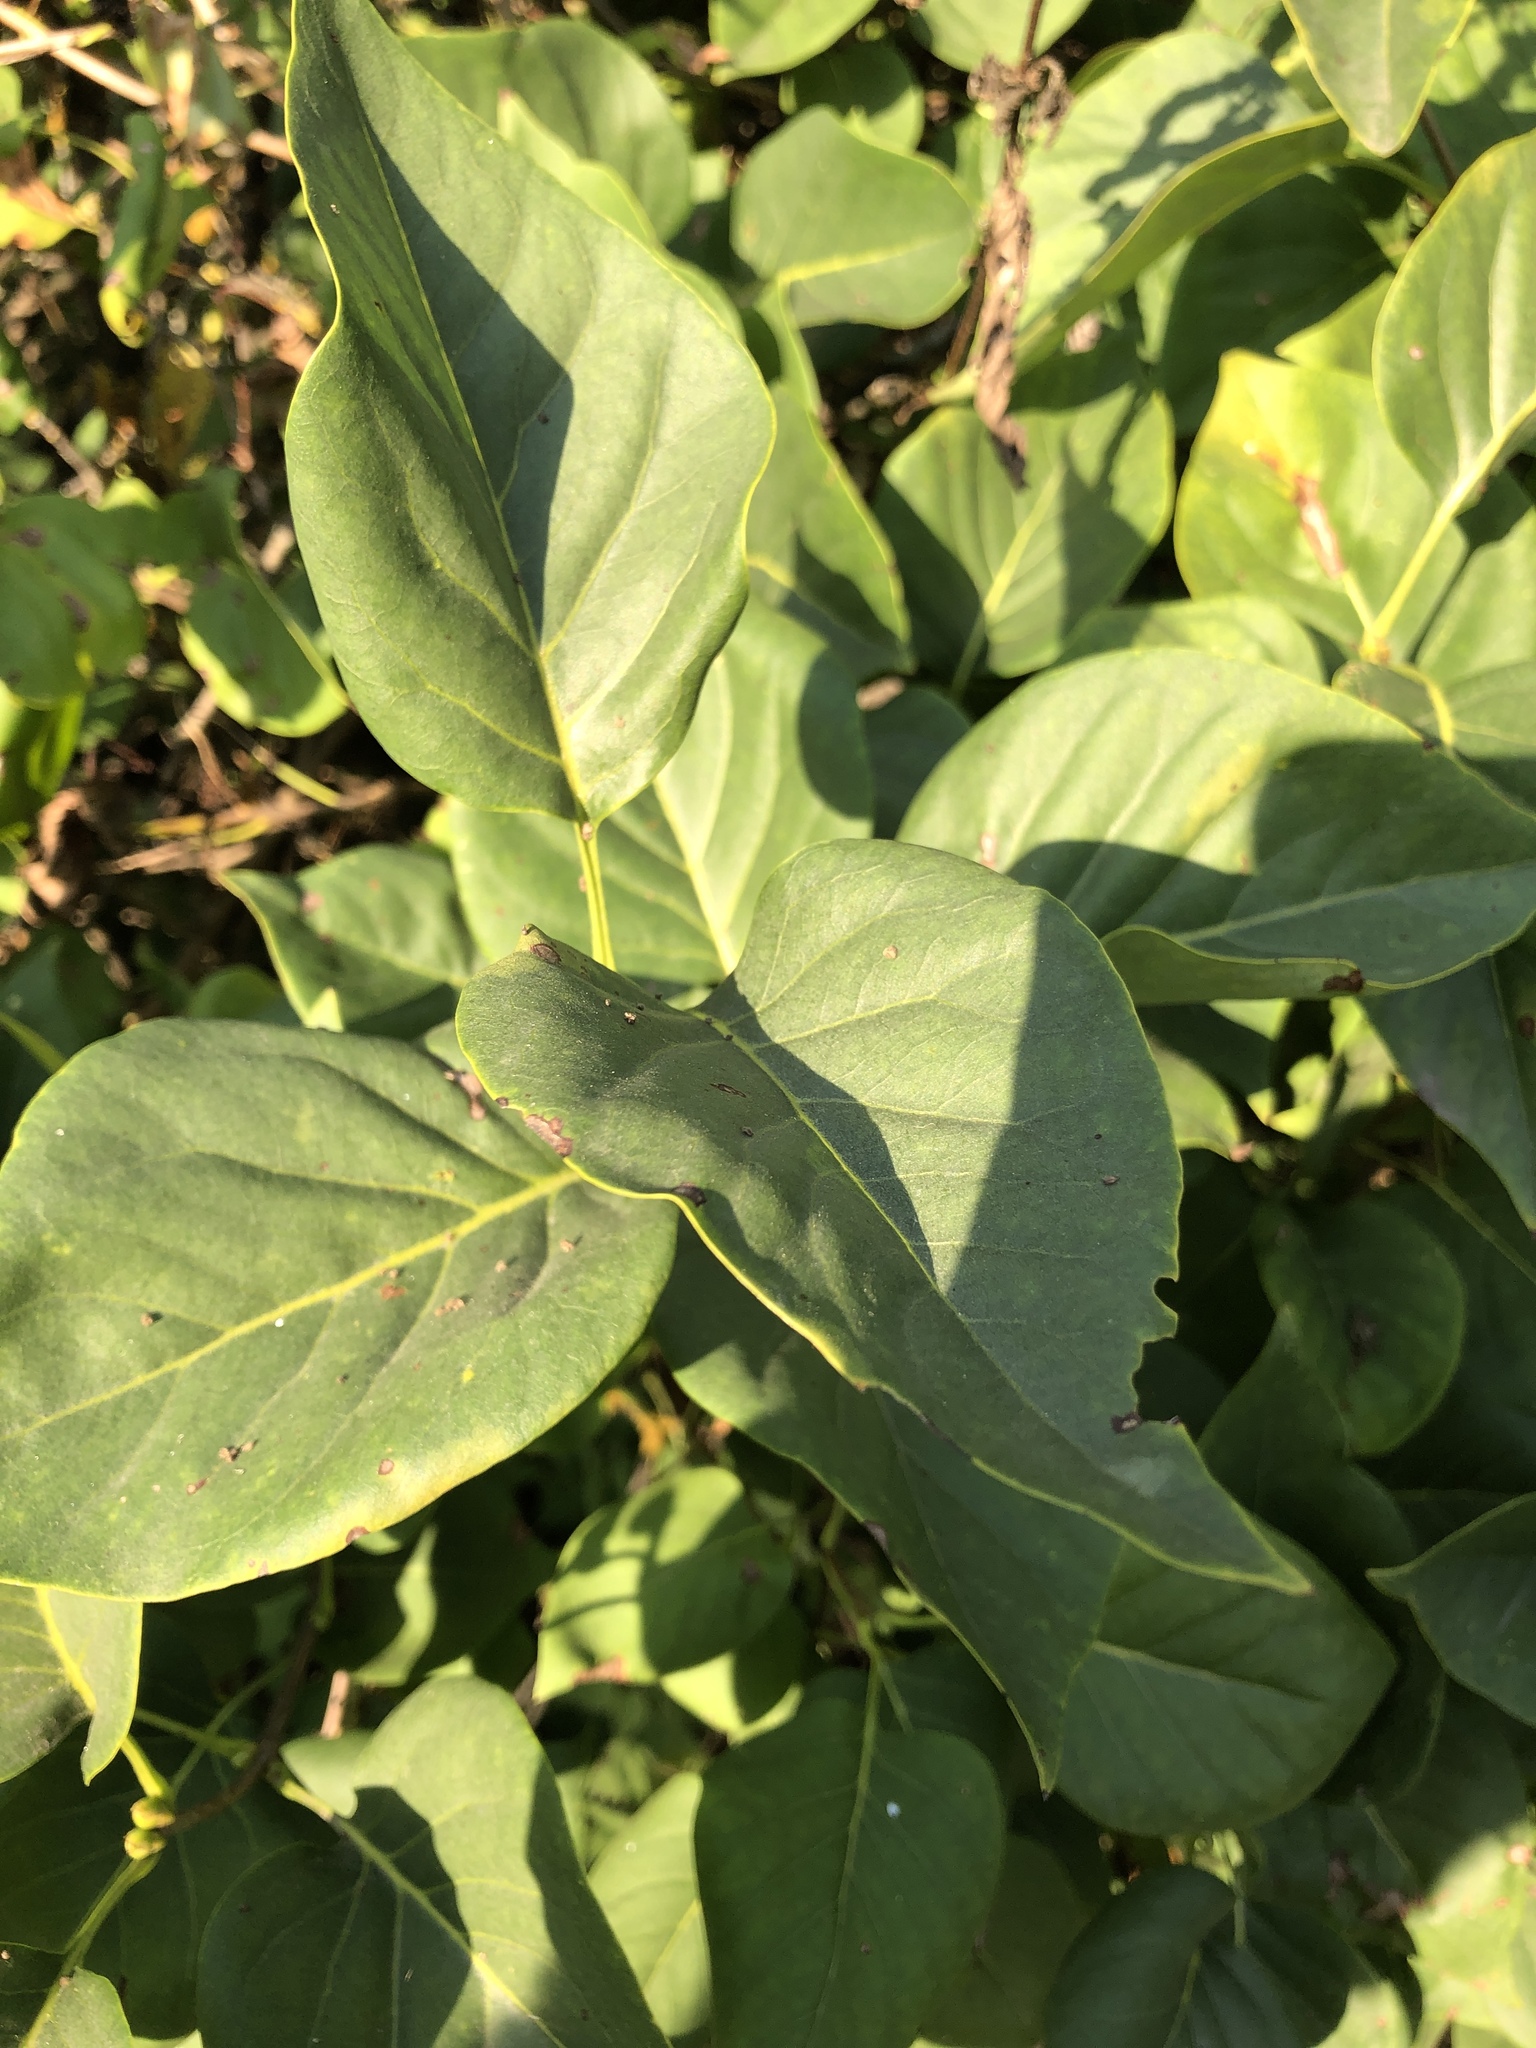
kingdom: Plantae
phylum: Tracheophyta
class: Magnoliopsida
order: Lamiales
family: Oleaceae
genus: Syringa
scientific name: Syringa vulgaris
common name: Common lilac
